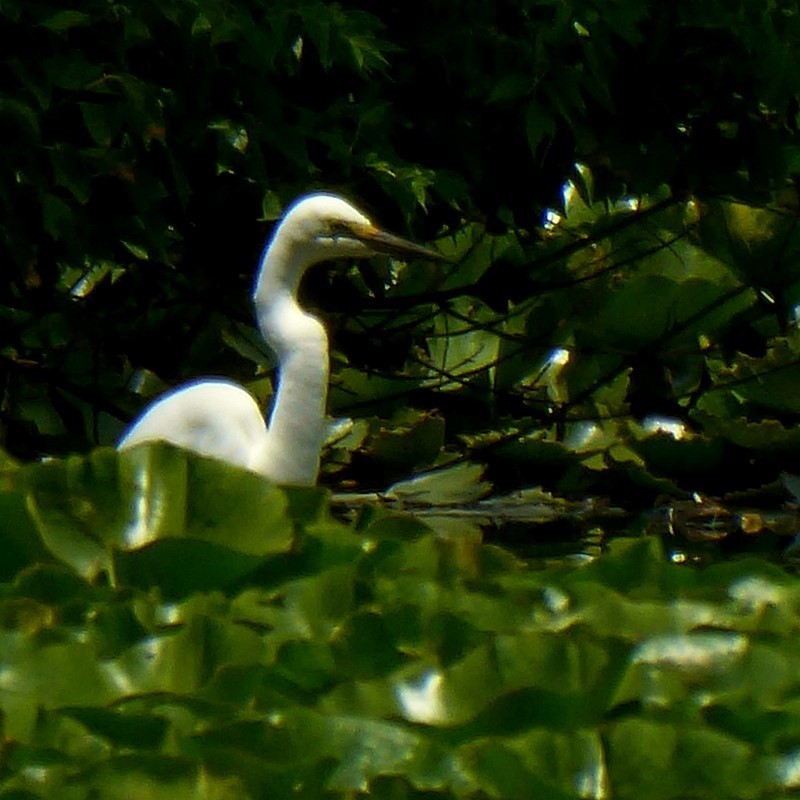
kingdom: Animalia
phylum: Chordata
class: Aves
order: Pelecaniformes
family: Ardeidae
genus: Ardea
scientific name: Ardea alba
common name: Great egret
